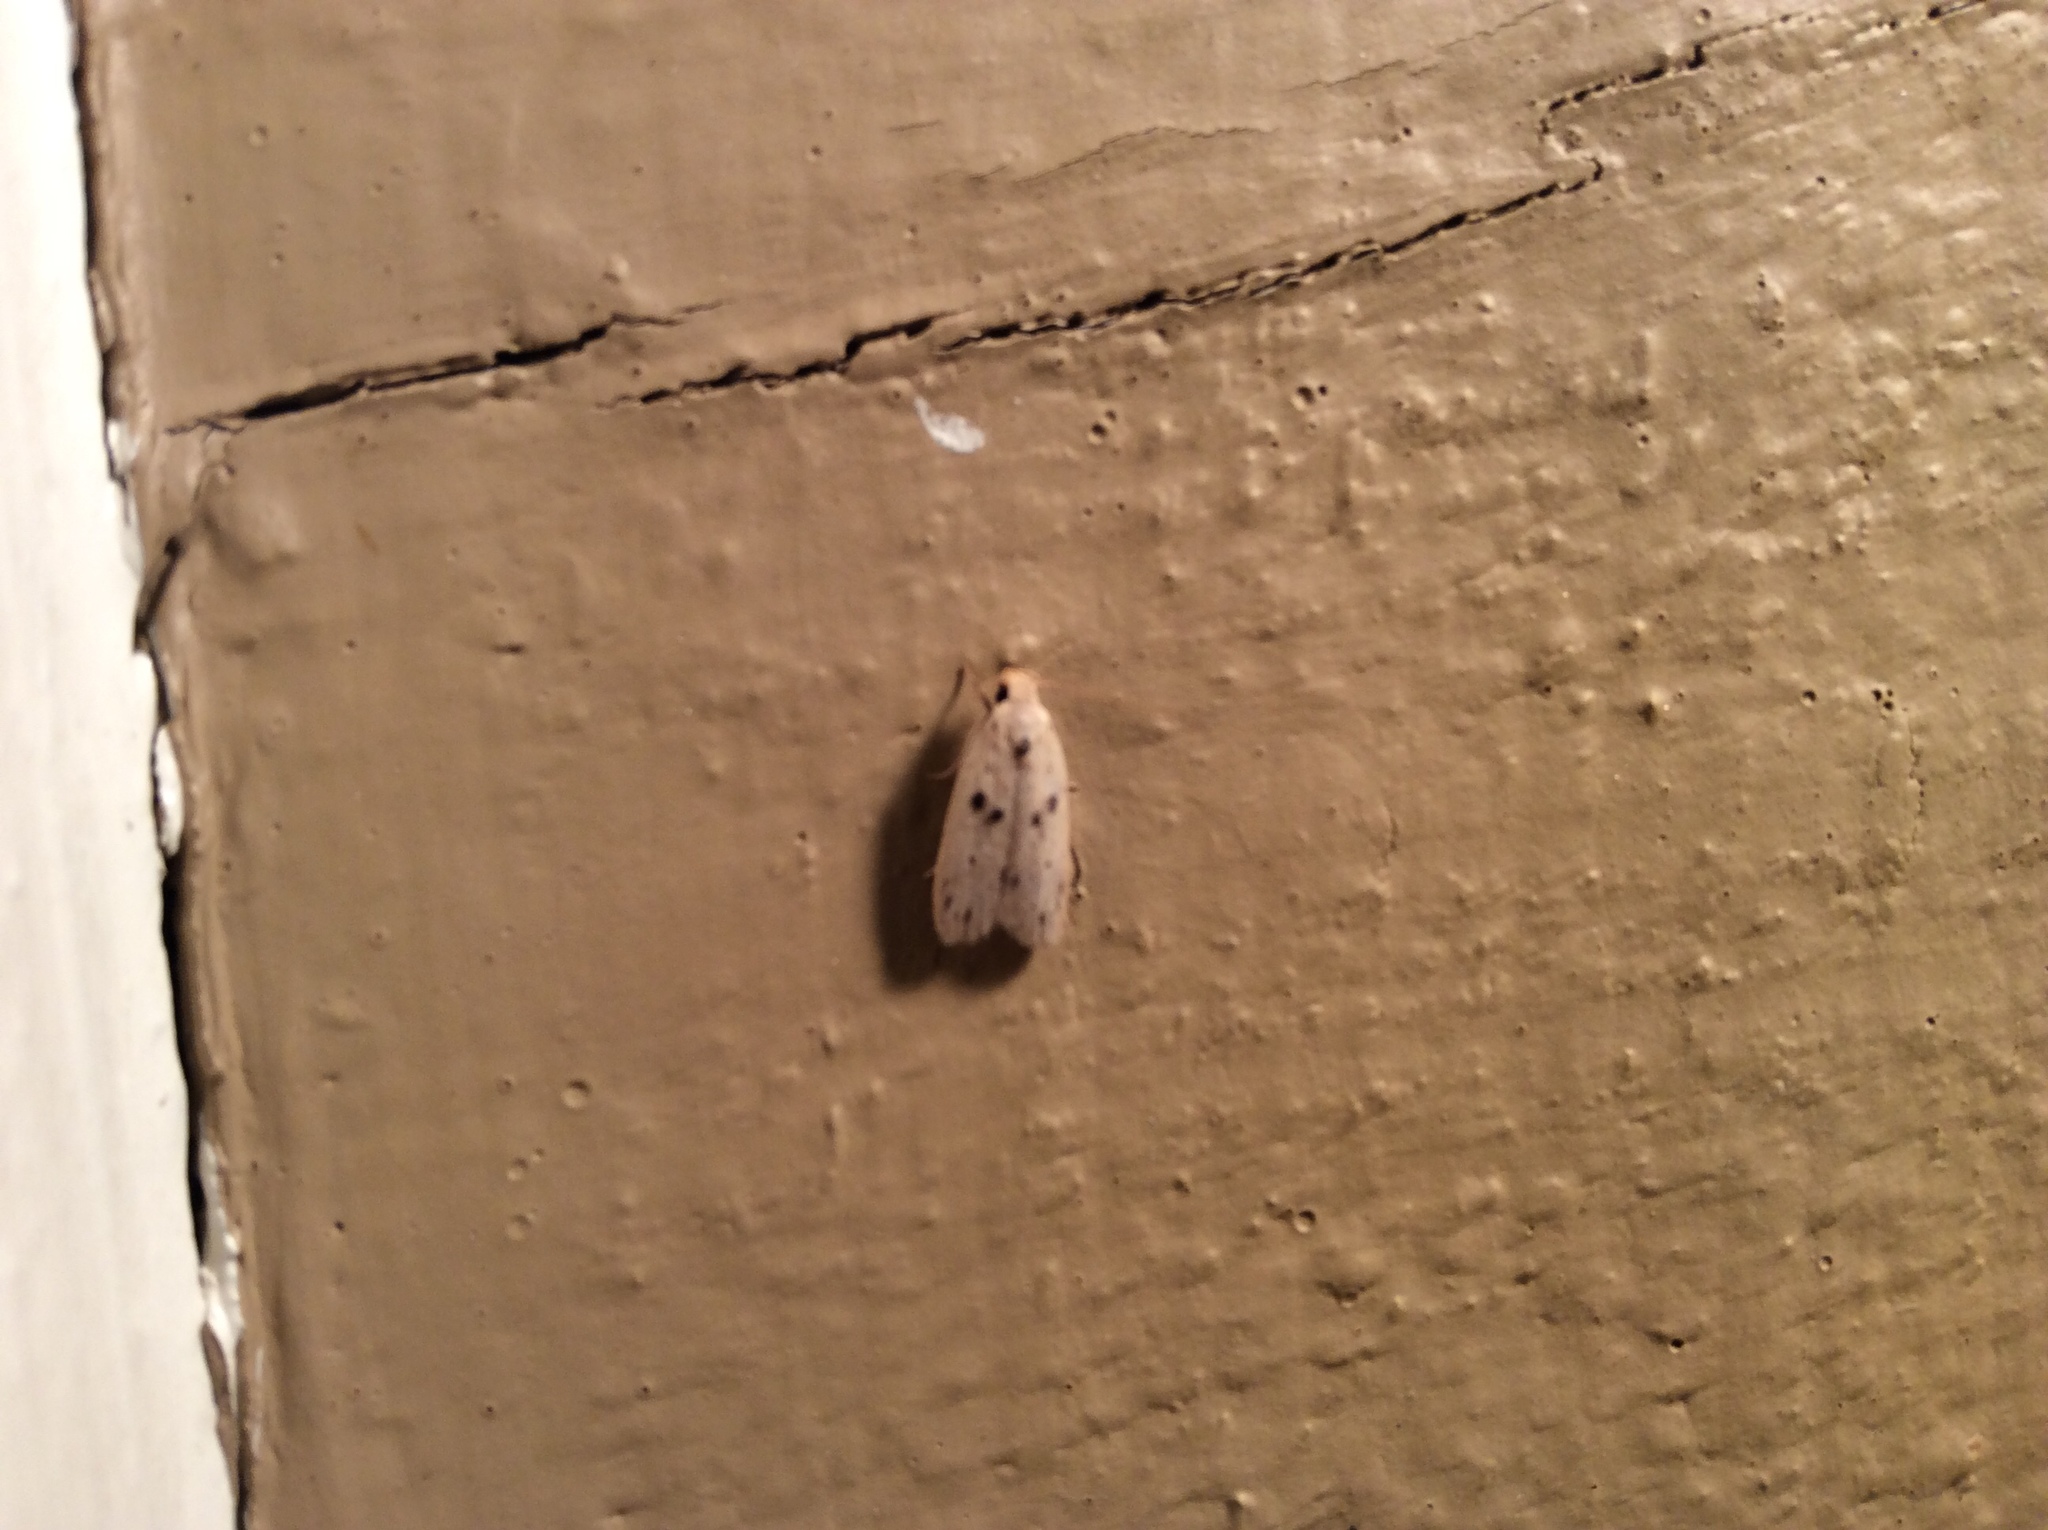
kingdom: Animalia
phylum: Arthropoda
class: Insecta
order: Lepidoptera
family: Peleopodidae
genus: Scythropiodes
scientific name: Scythropiodes issikii
